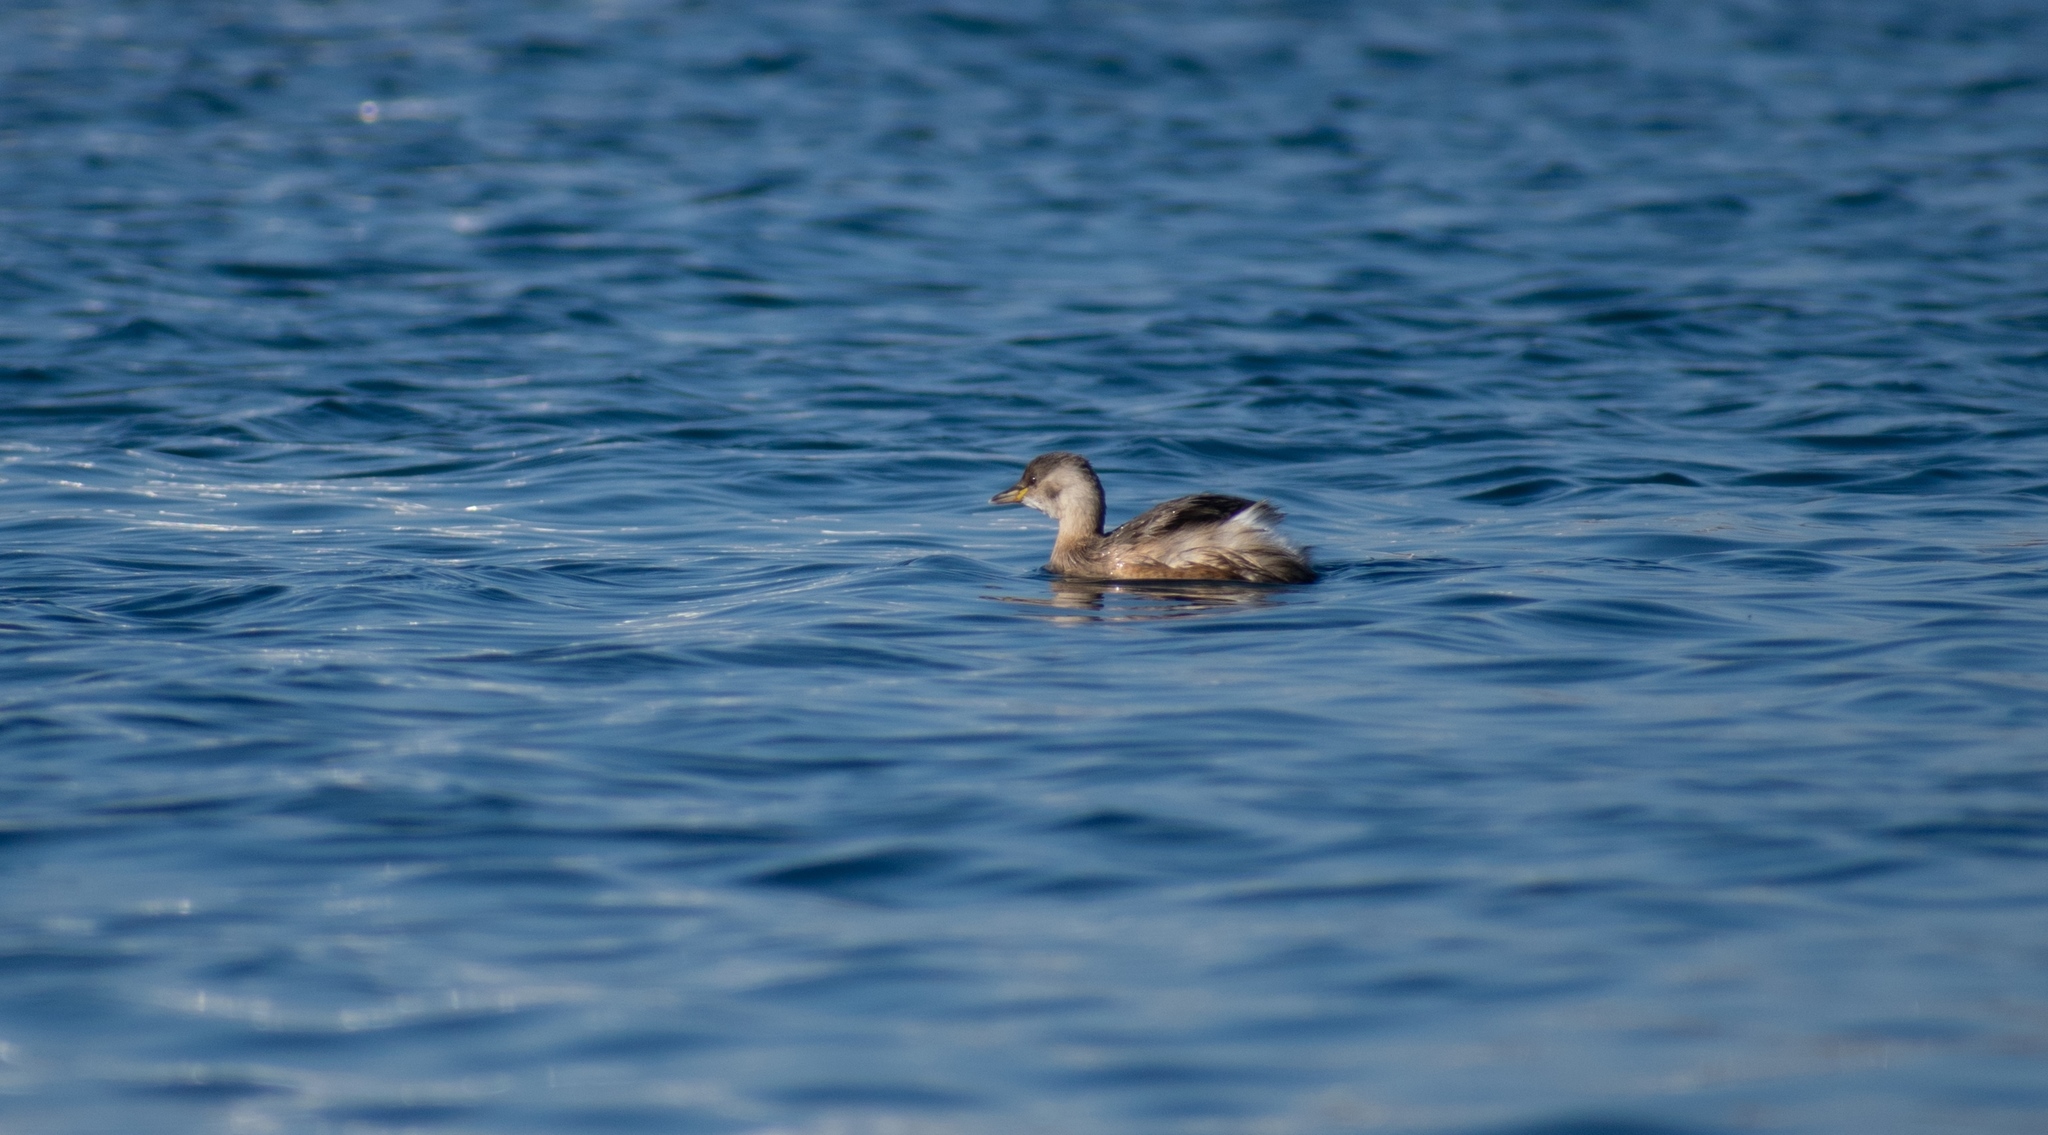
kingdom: Animalia
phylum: Chordata
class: Aves
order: Podicipediformes
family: Podicipedidae
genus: Tachybaptus
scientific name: Tachybaptus ruficollis
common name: Little grebe
